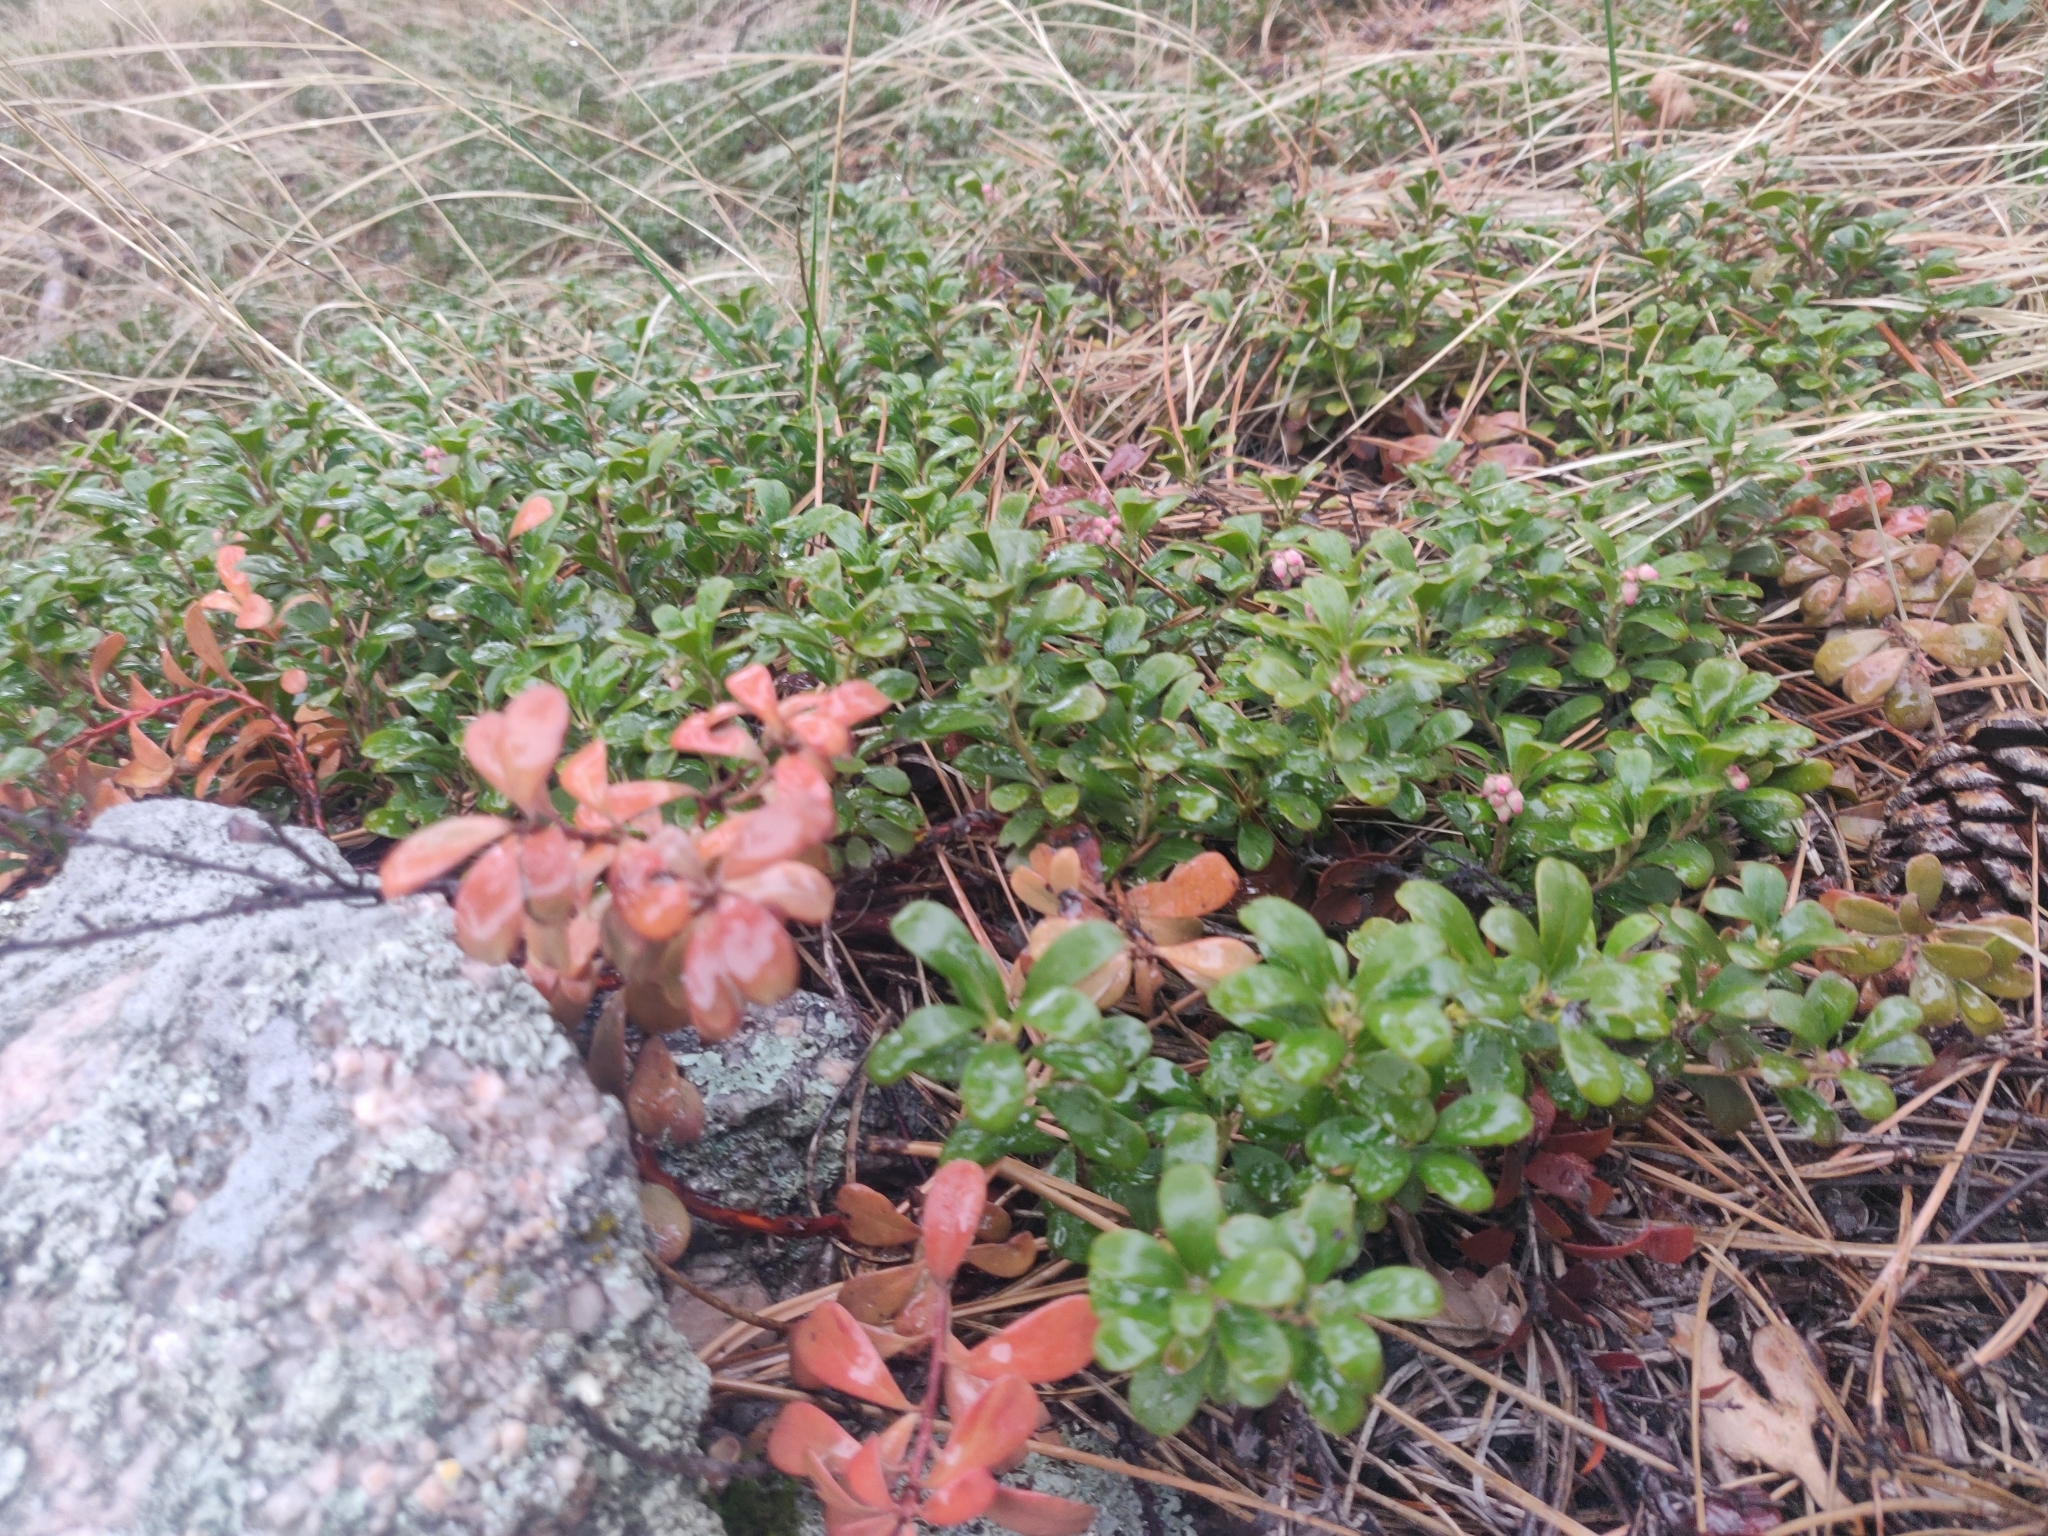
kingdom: Plantae
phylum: Tracheophyta
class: Magnoliopsida
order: Ericales
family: Ericaceae
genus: Arctostaphylos
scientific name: Arctostaphylos uva-ursi
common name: Bearberry
